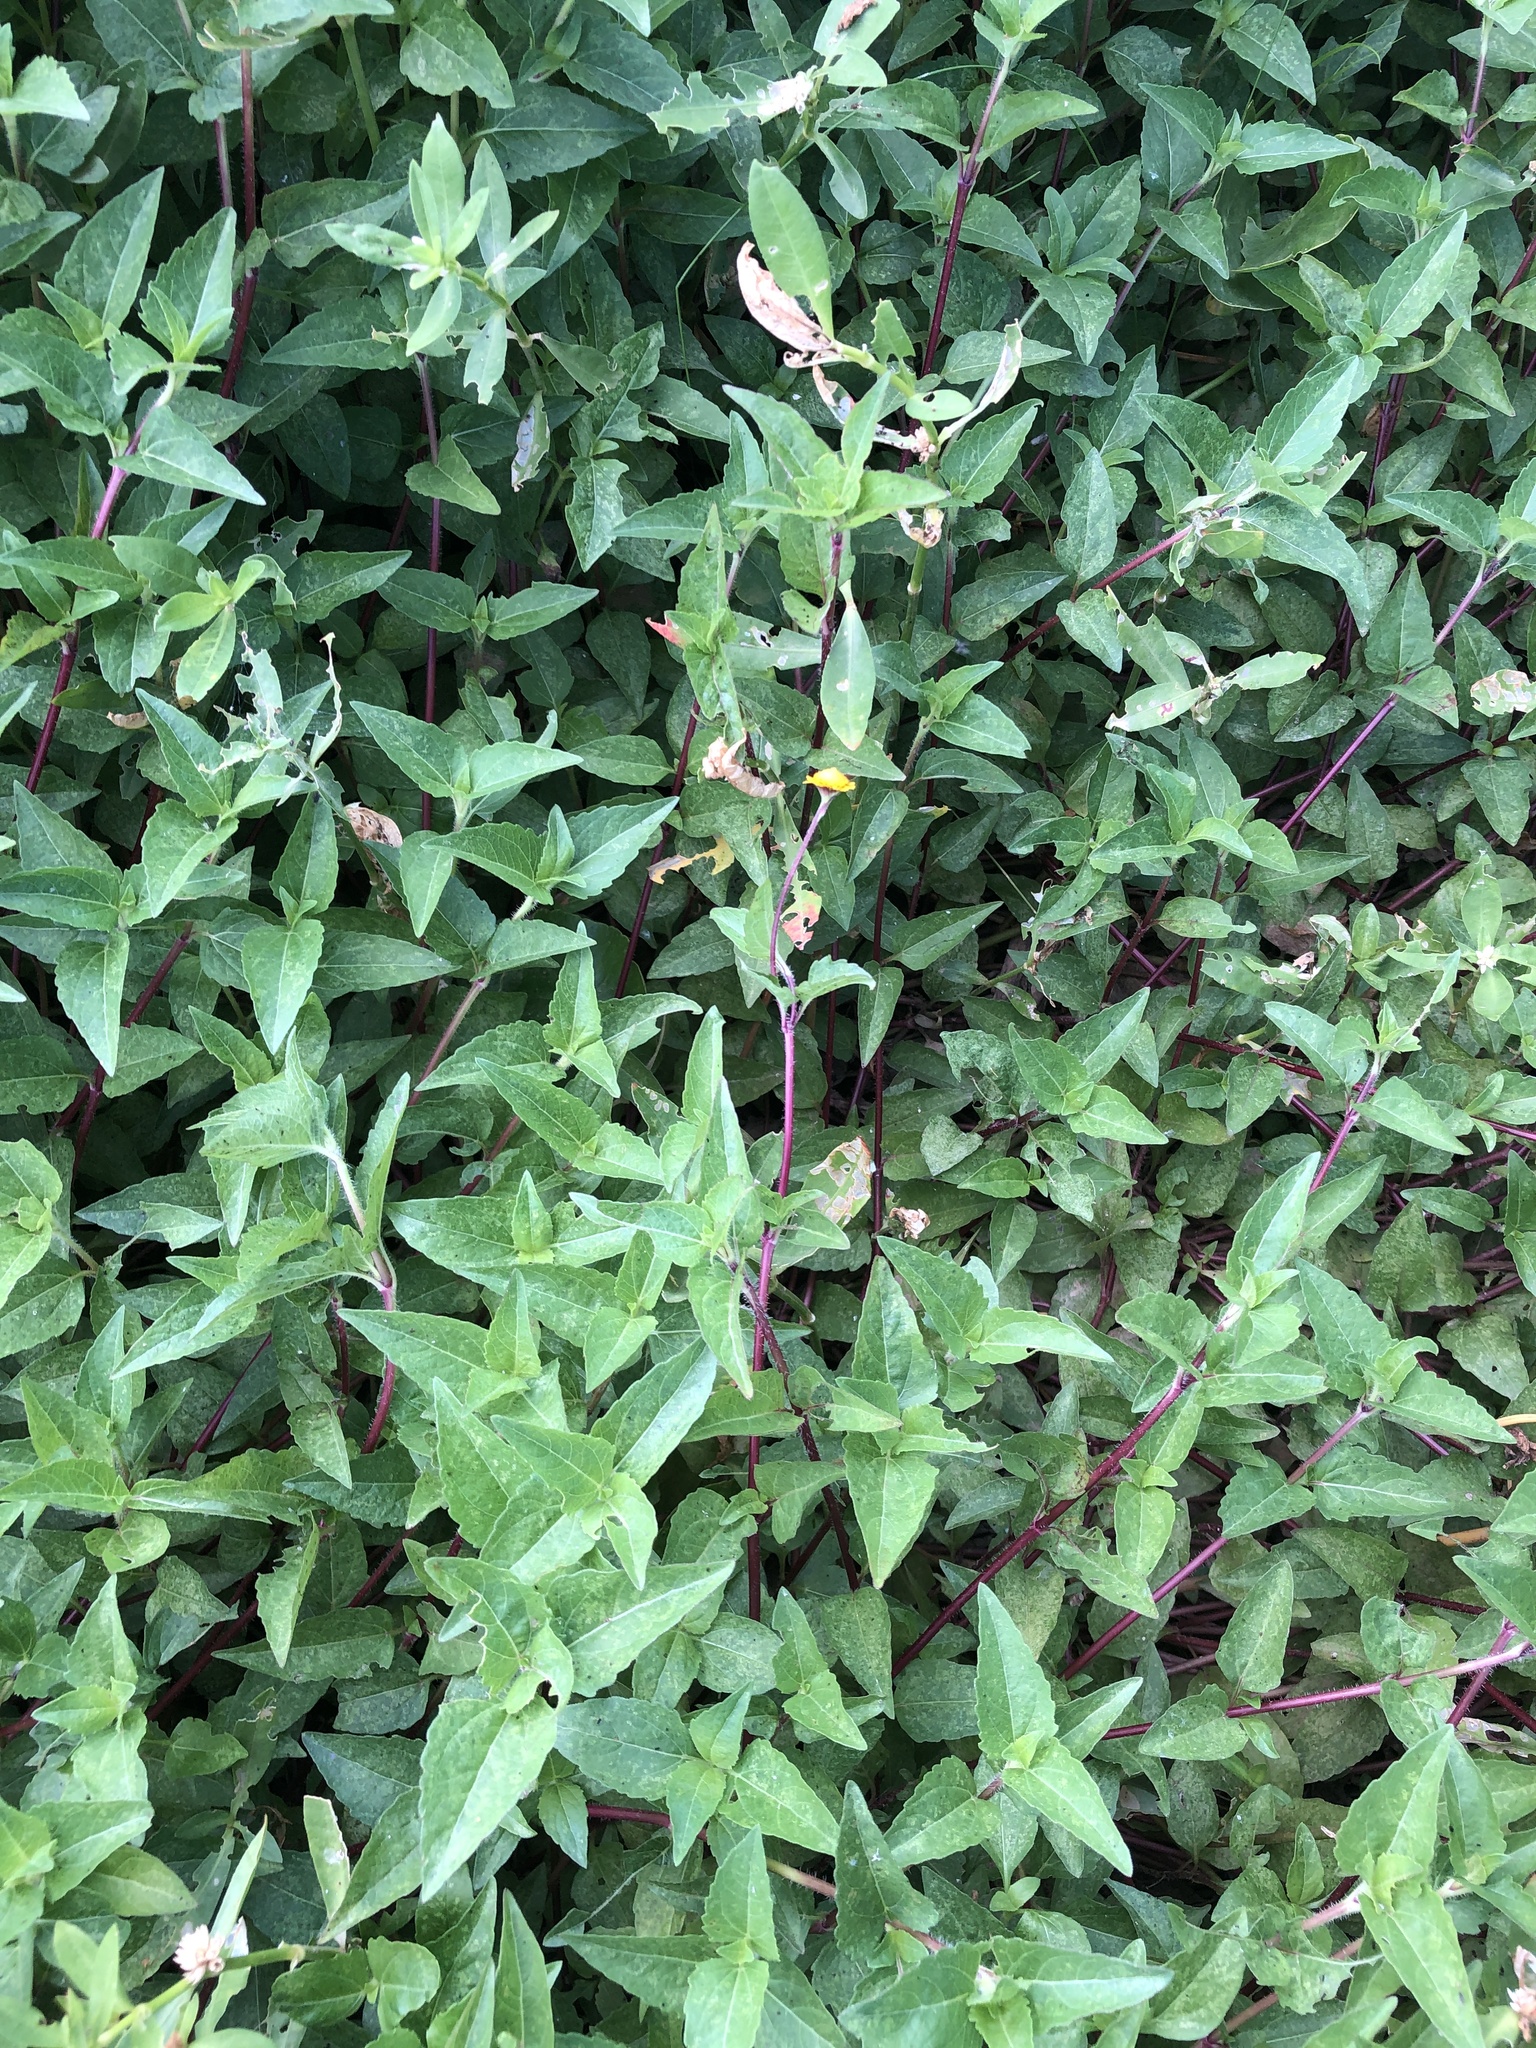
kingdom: Plantae
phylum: Tracheophyta
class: Magnoliopsida
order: Asterales
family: Asteraceae
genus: Acmella
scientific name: Acmella repens
